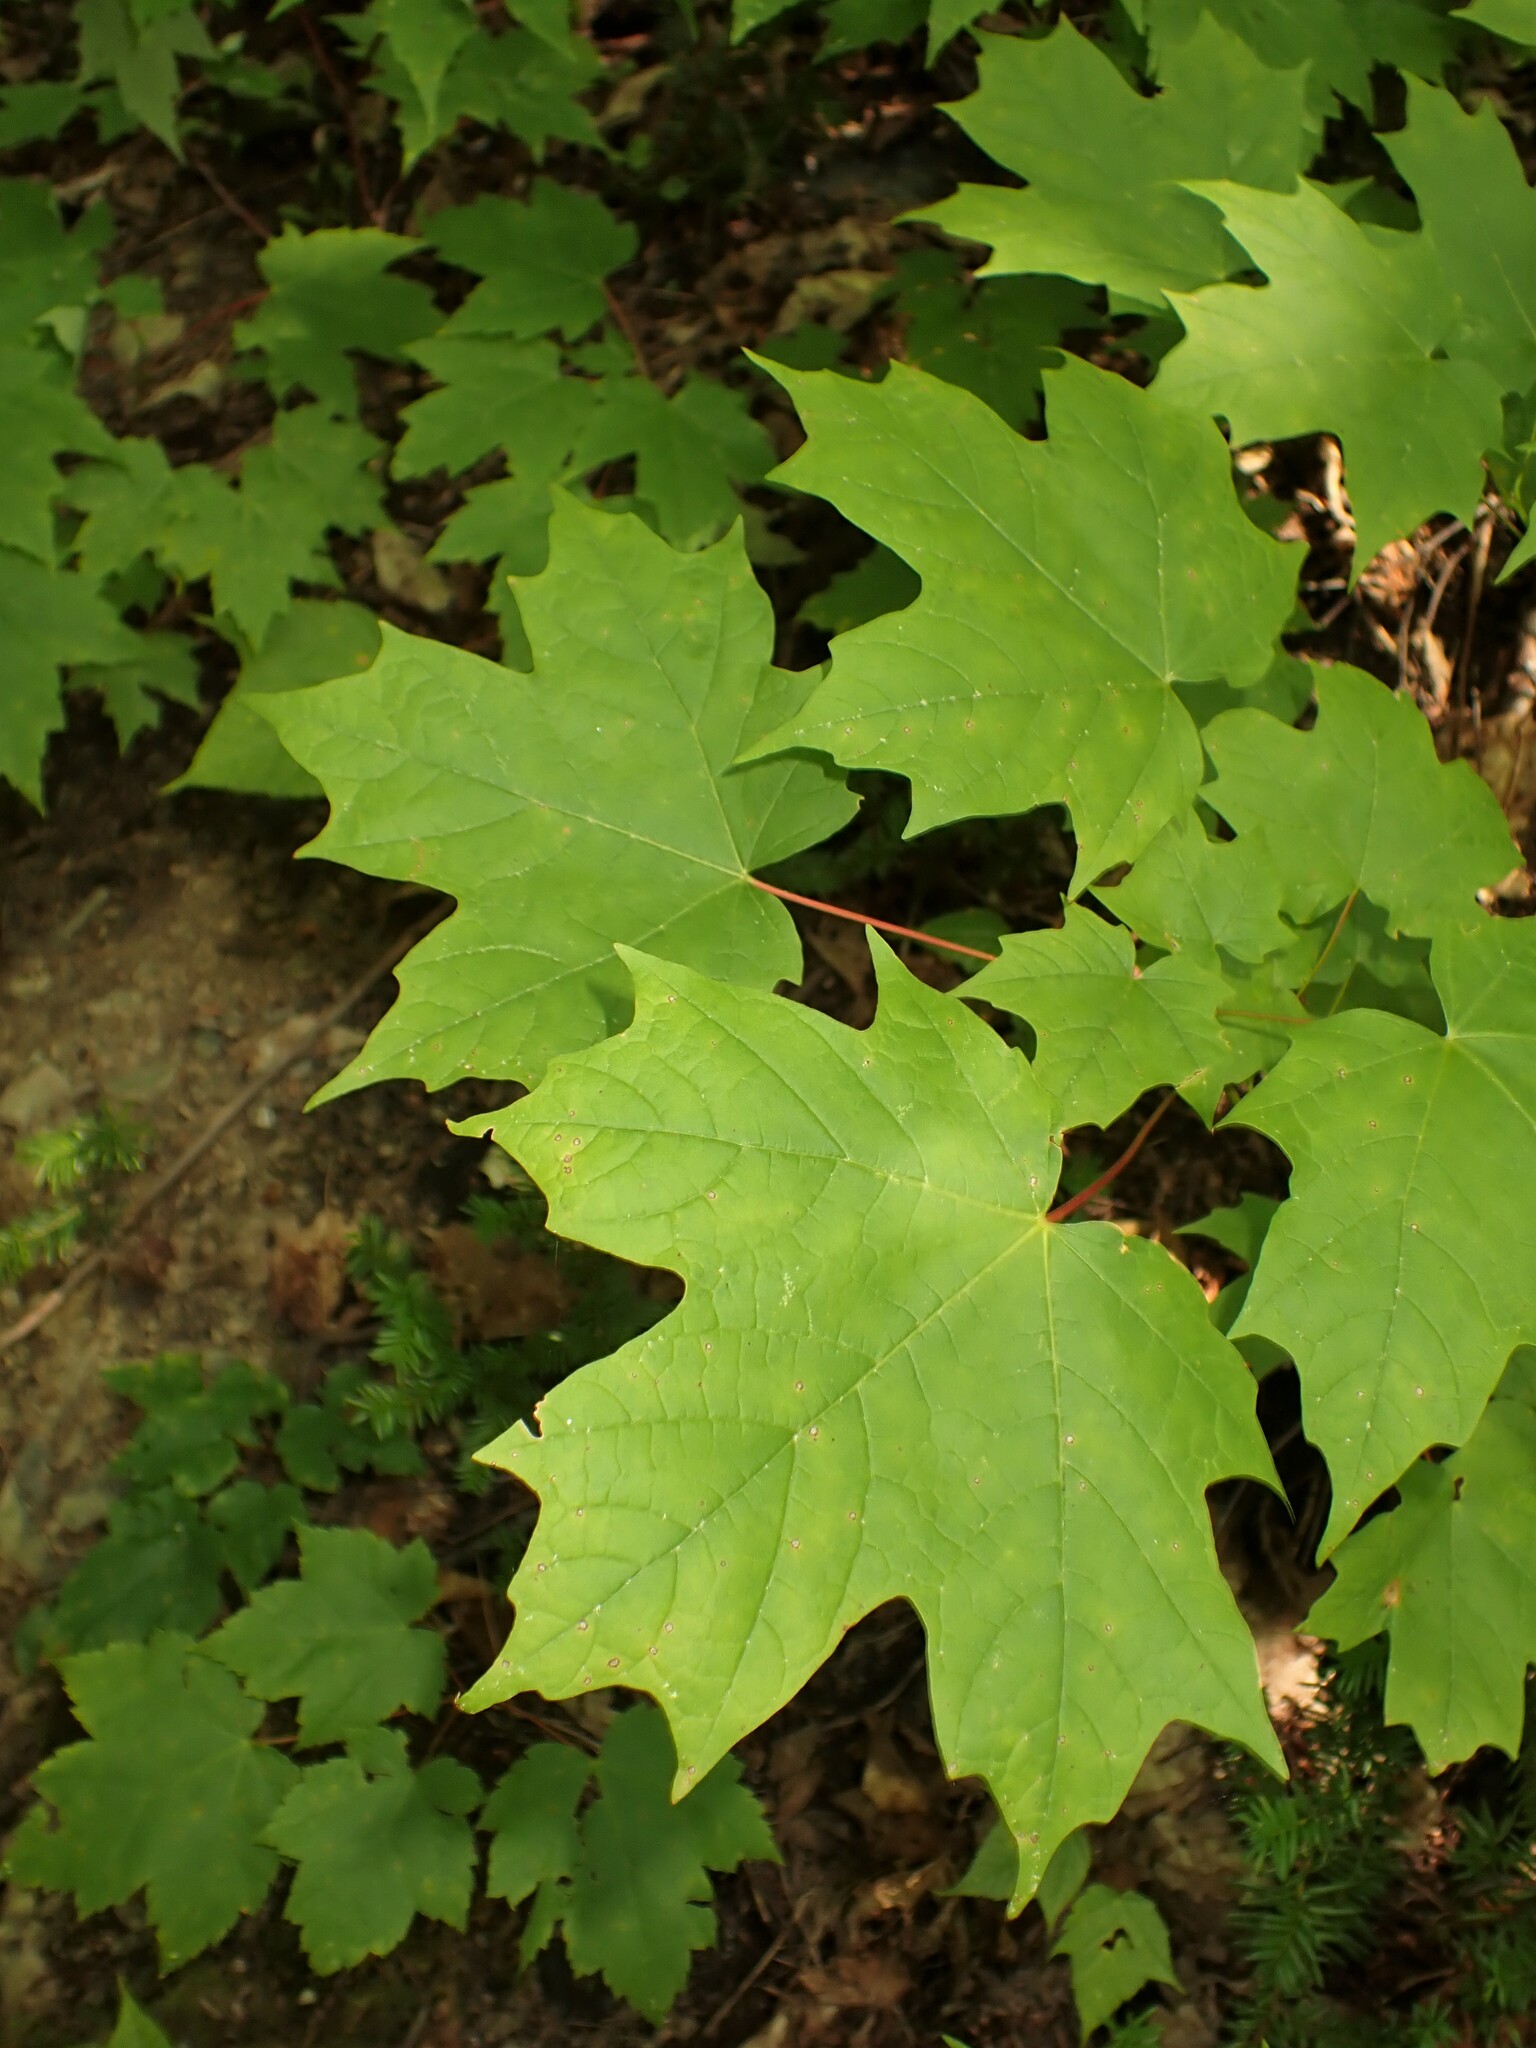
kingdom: Plantae
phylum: Tracheophyta
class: Magnoliopsida
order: Sapindales
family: Sapindaceae
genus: Acer
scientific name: Acer saccharum
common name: Sugar maple
